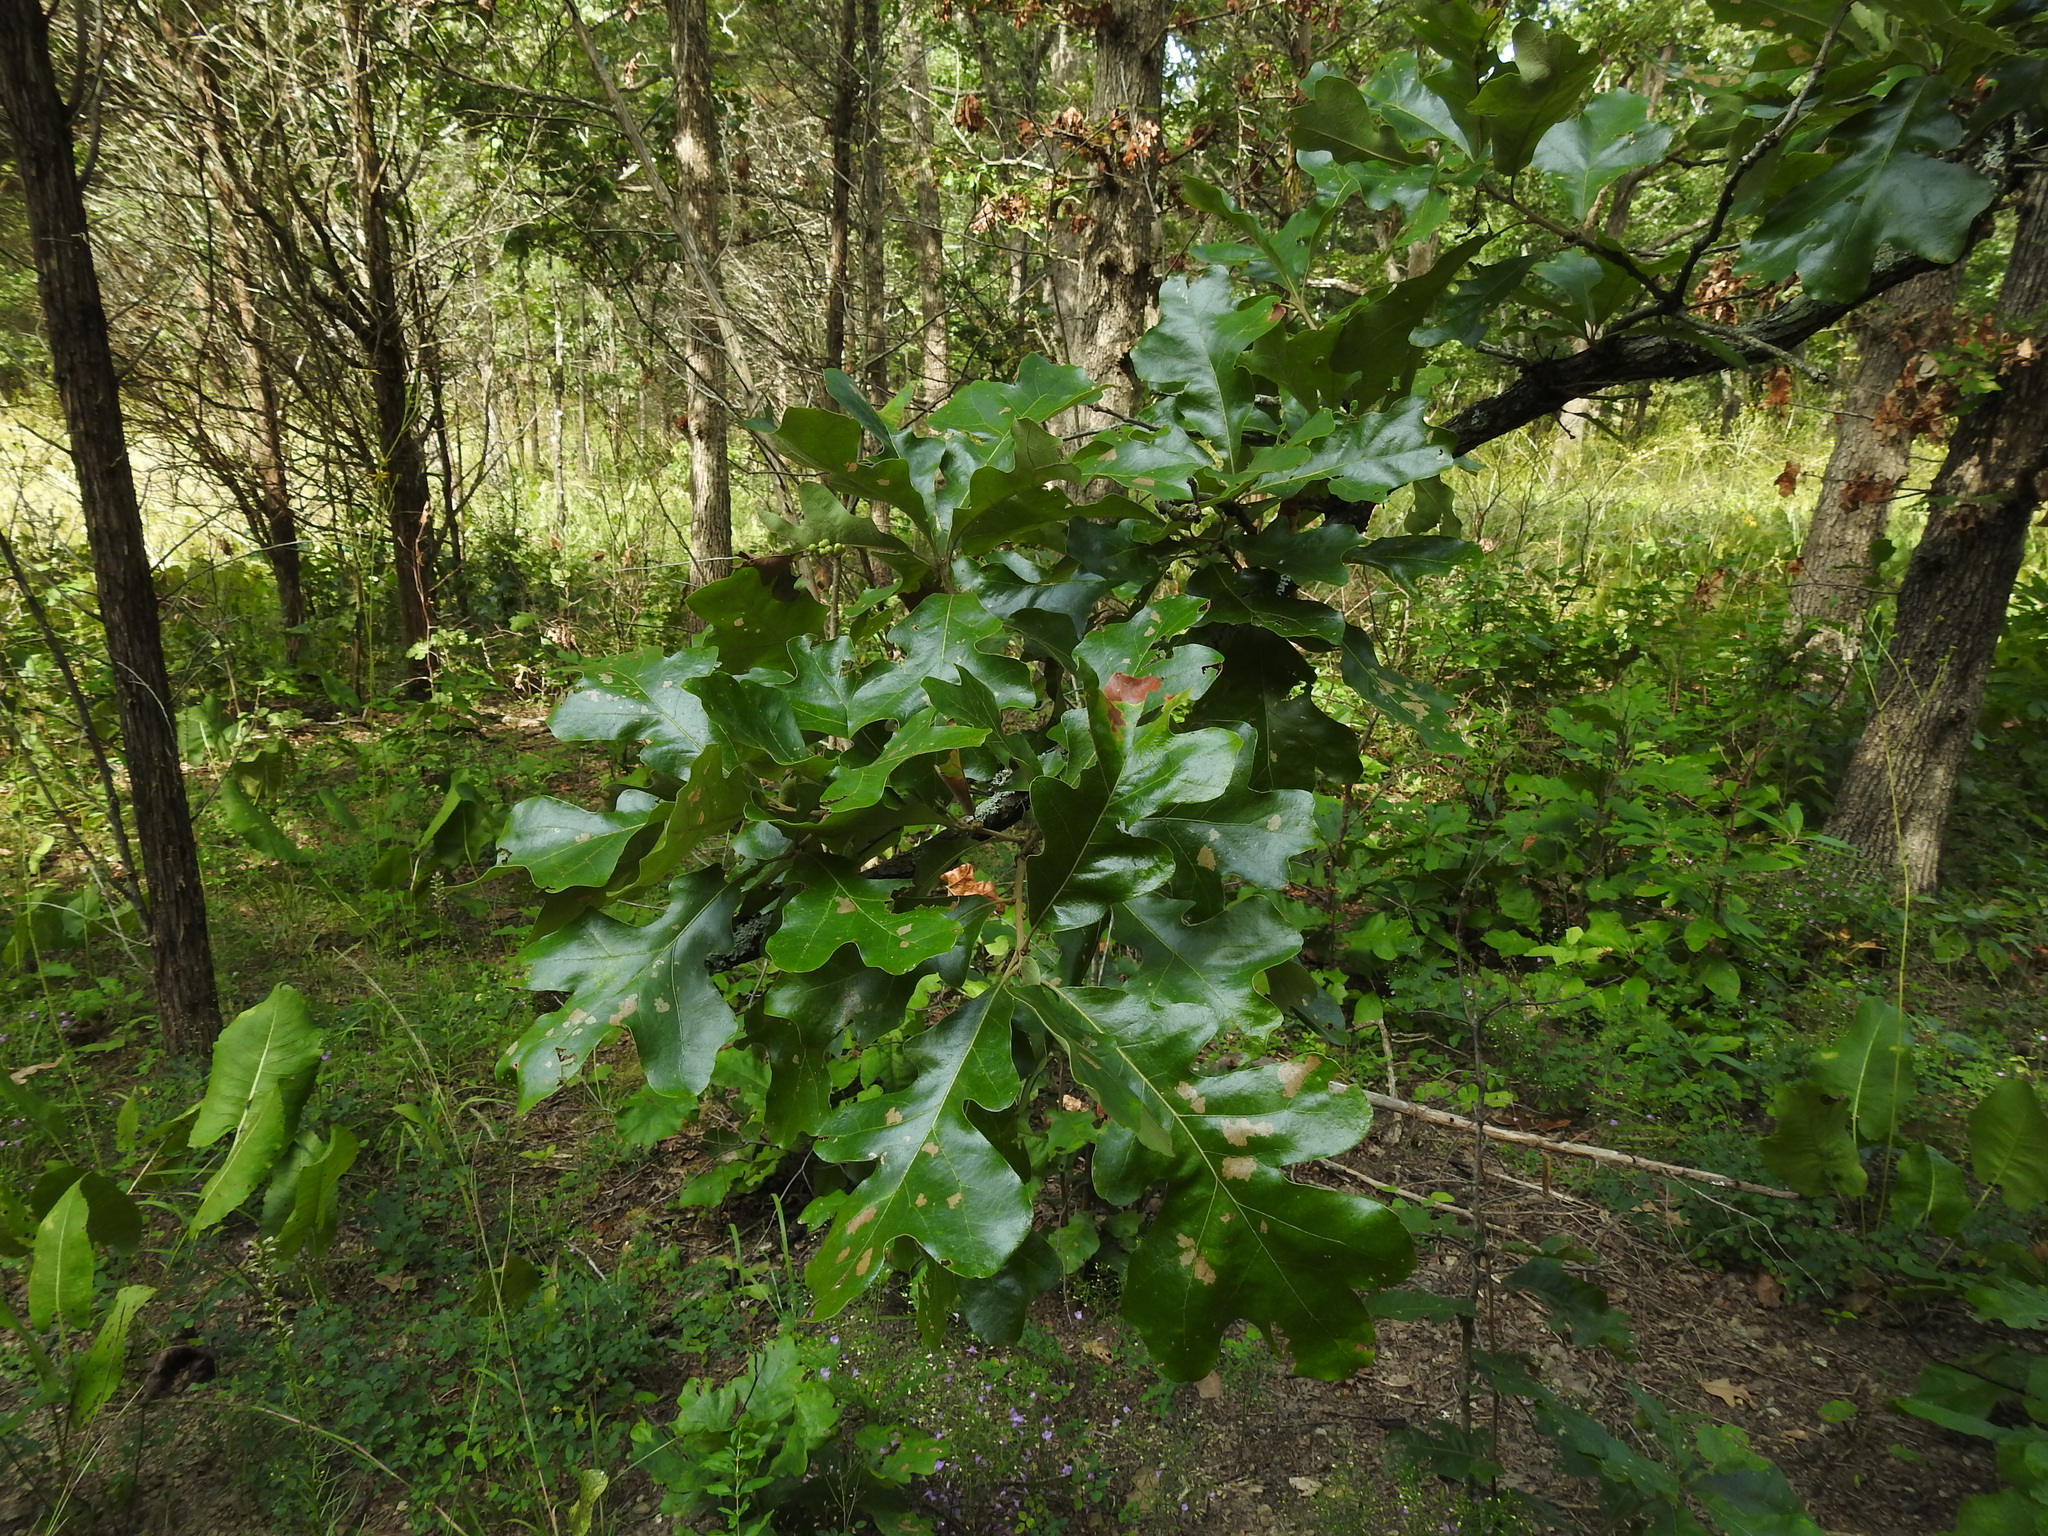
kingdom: Plantae
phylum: Tracheophyta
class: Magnoliopsida
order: Fagales
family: Fagaceae
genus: Quercus
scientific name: Quercus stellata
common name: Post oak
